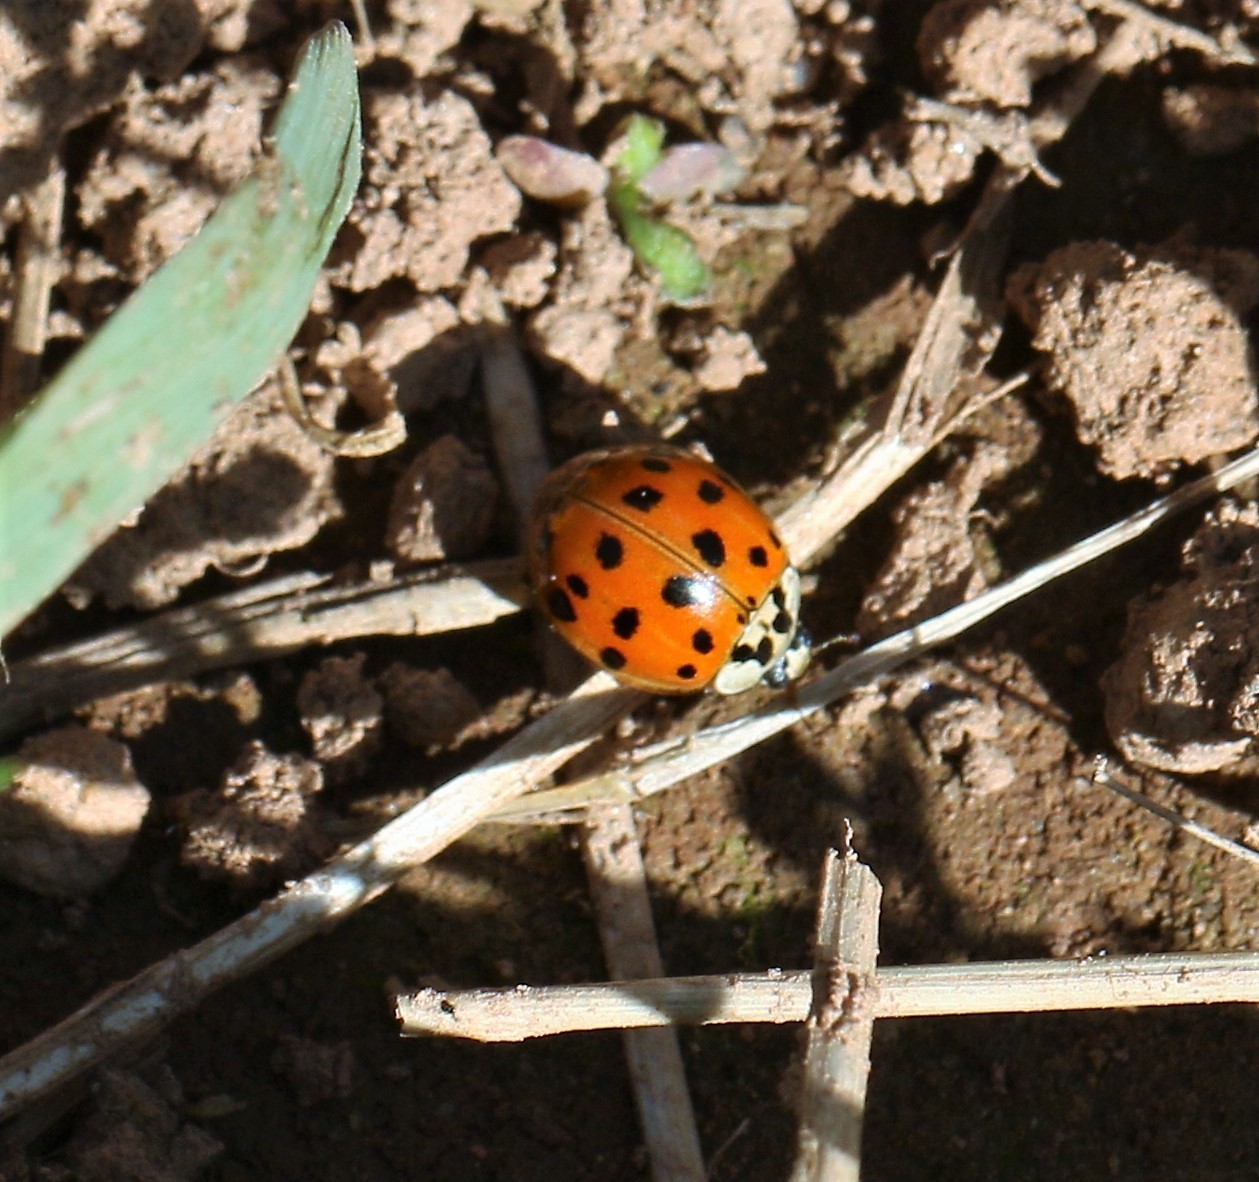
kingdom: Animalia
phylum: Arthropoda
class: Insecta
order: Coleoptera
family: Coccinellidae
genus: Harmonia
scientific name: Harmonia axyridis
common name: Harlequin ladybird
